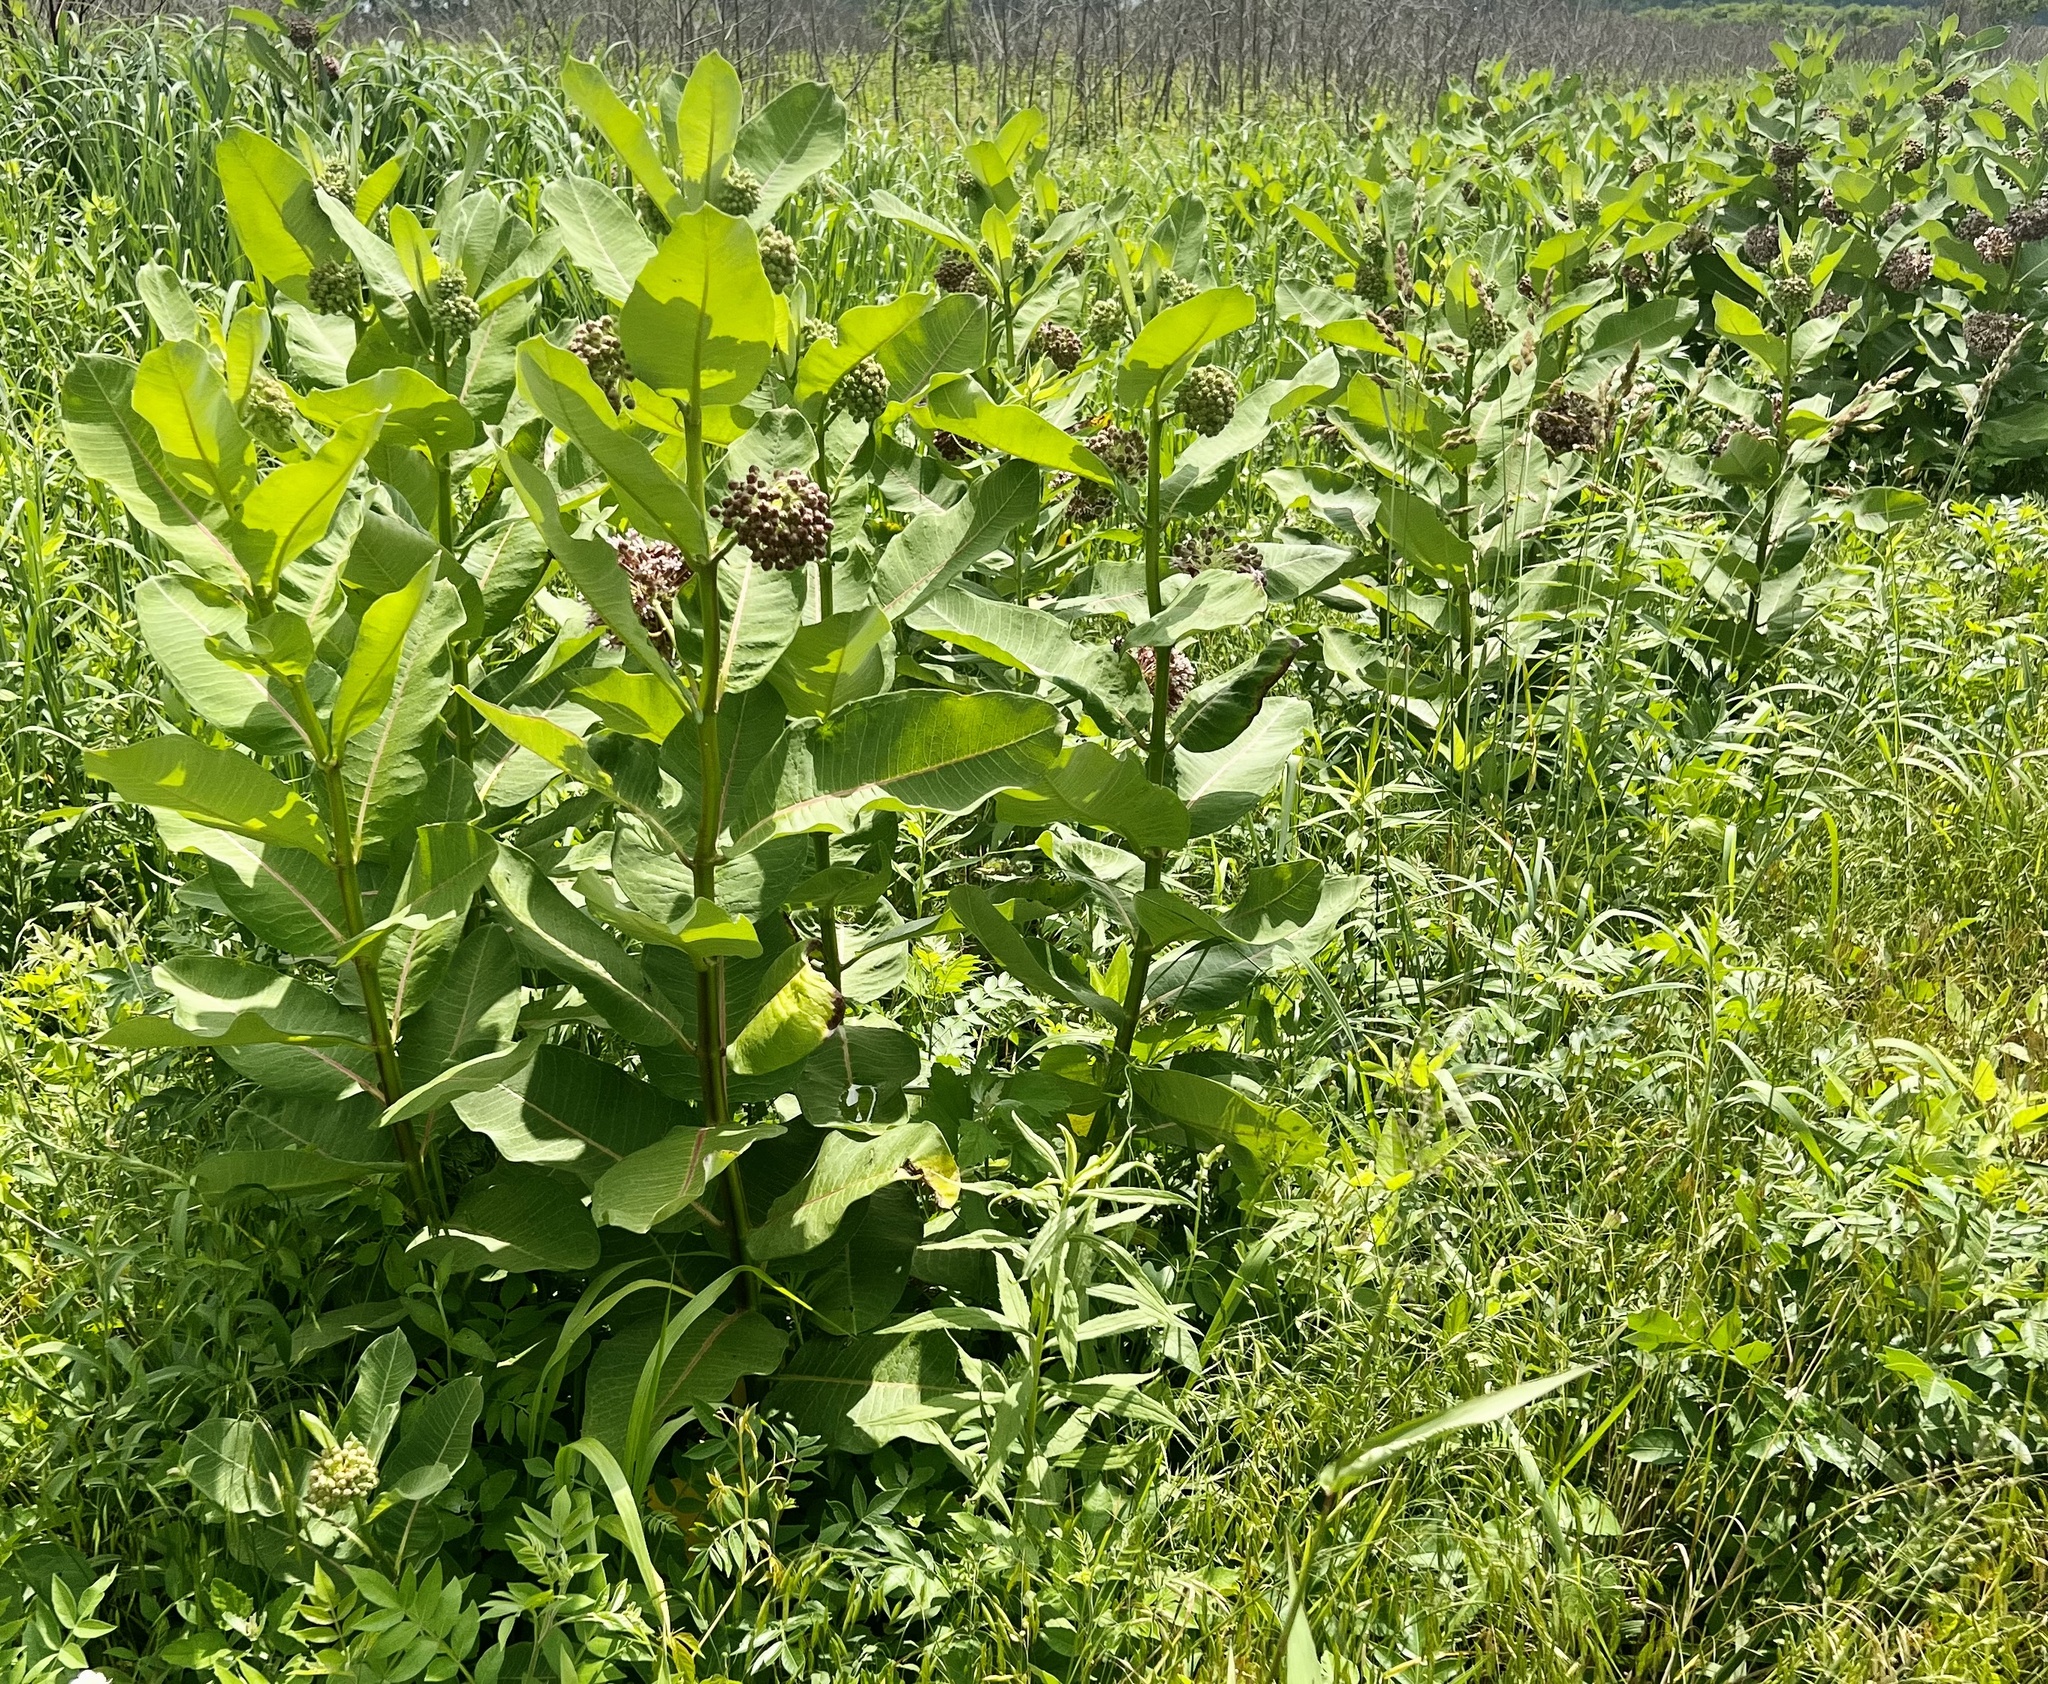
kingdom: Plantae
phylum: Tracheophyta
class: Magnoliopsida
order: Gentianales
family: Apocynaceae
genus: Asclepias
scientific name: Asclepias syriaca
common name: Common milkweed
